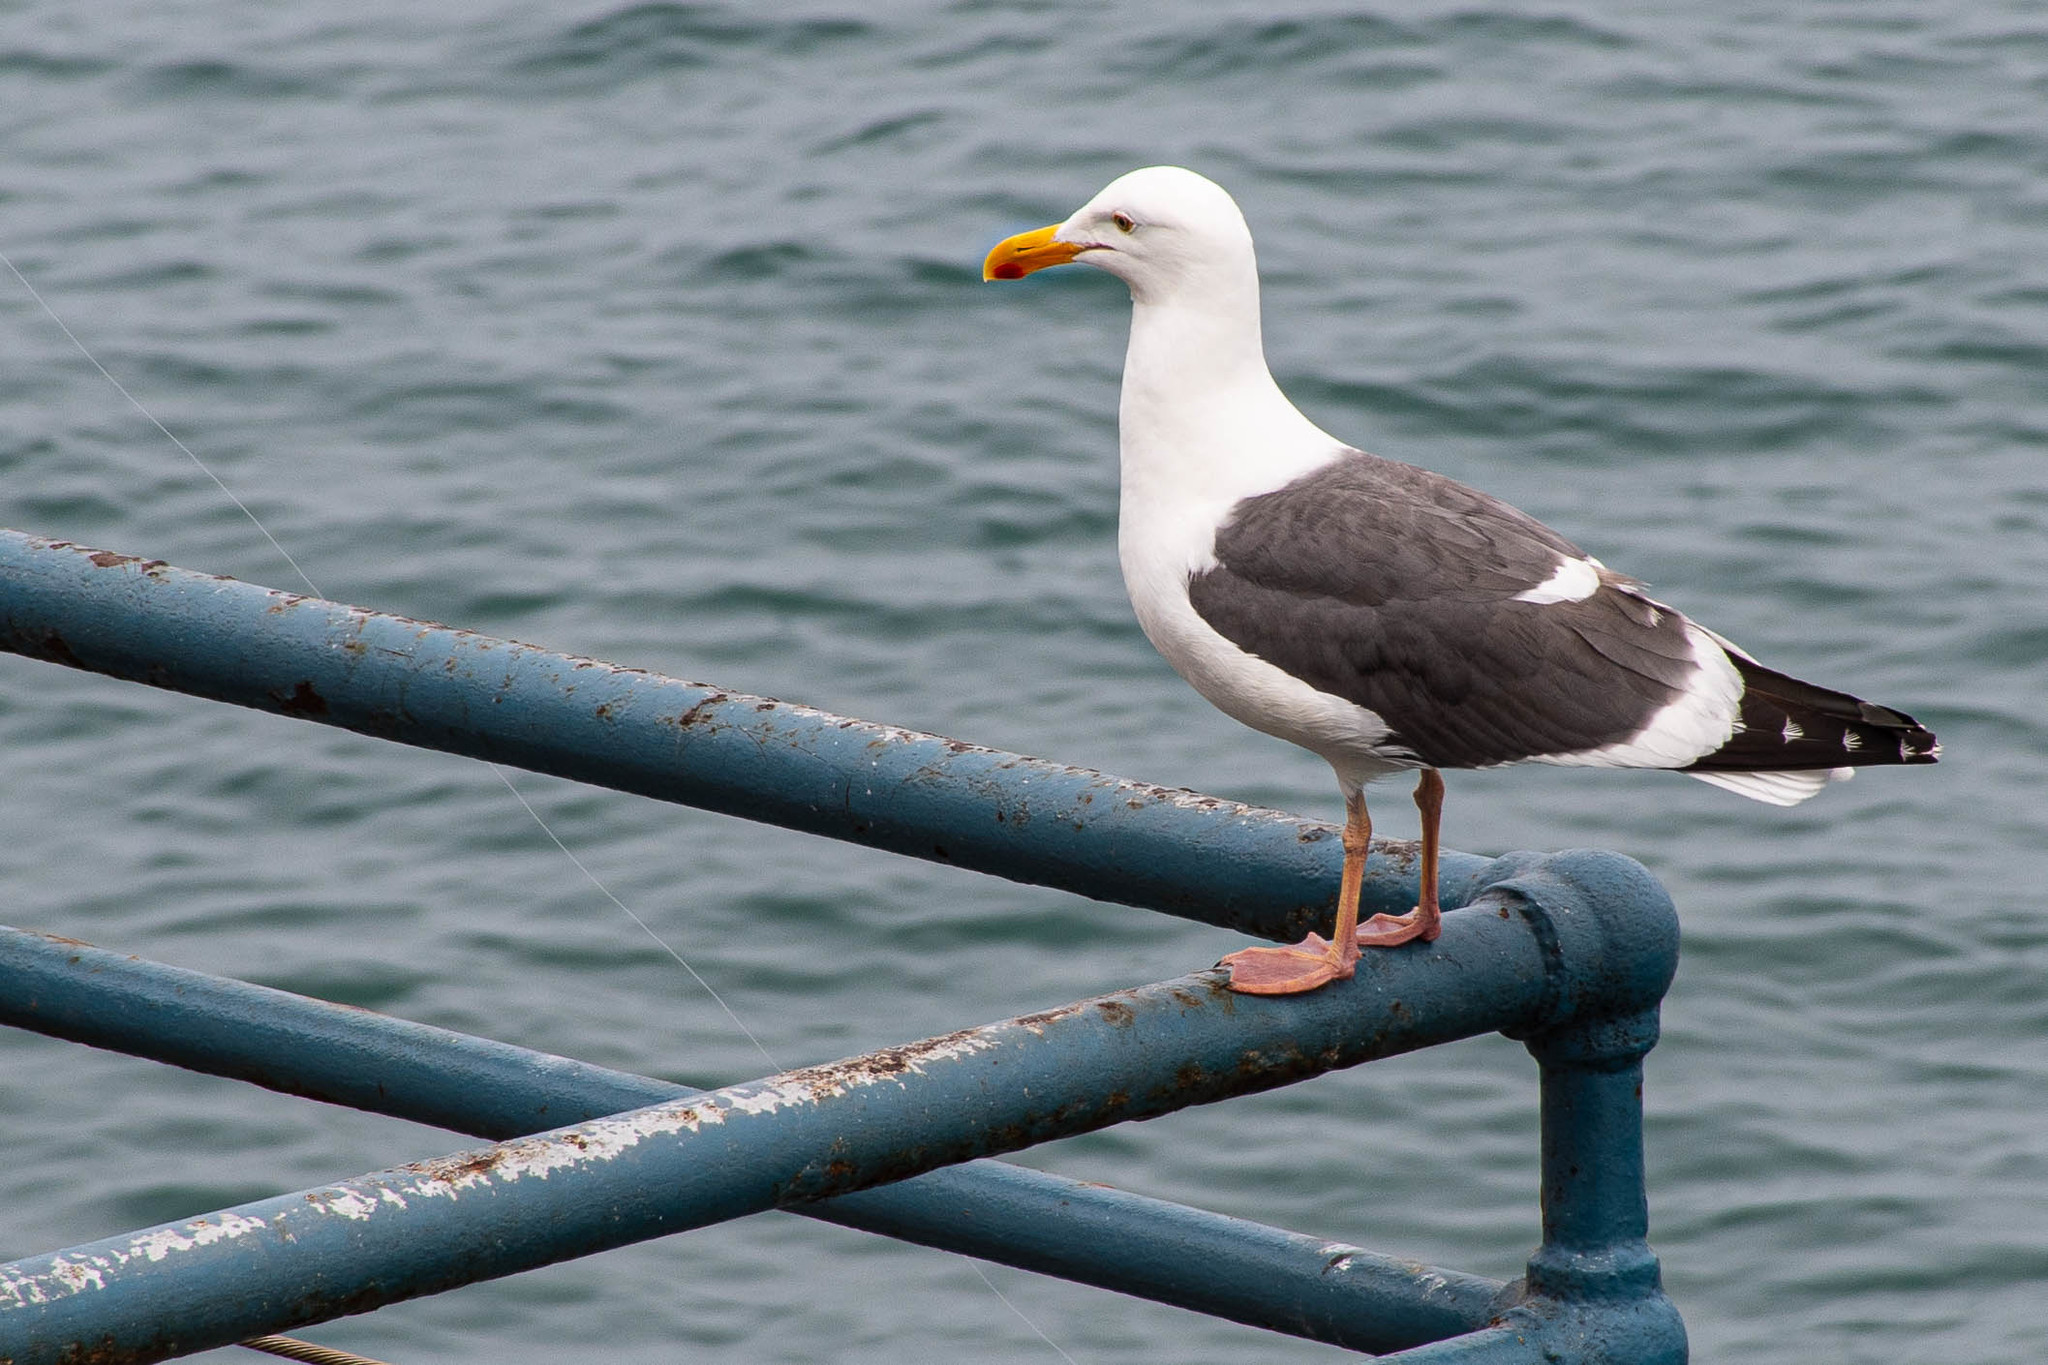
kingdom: Animalia
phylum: Chordata
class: Aves
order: Charadriiformes
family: Laridae
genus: Larus
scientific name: Larus occidentalis
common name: Western gull
